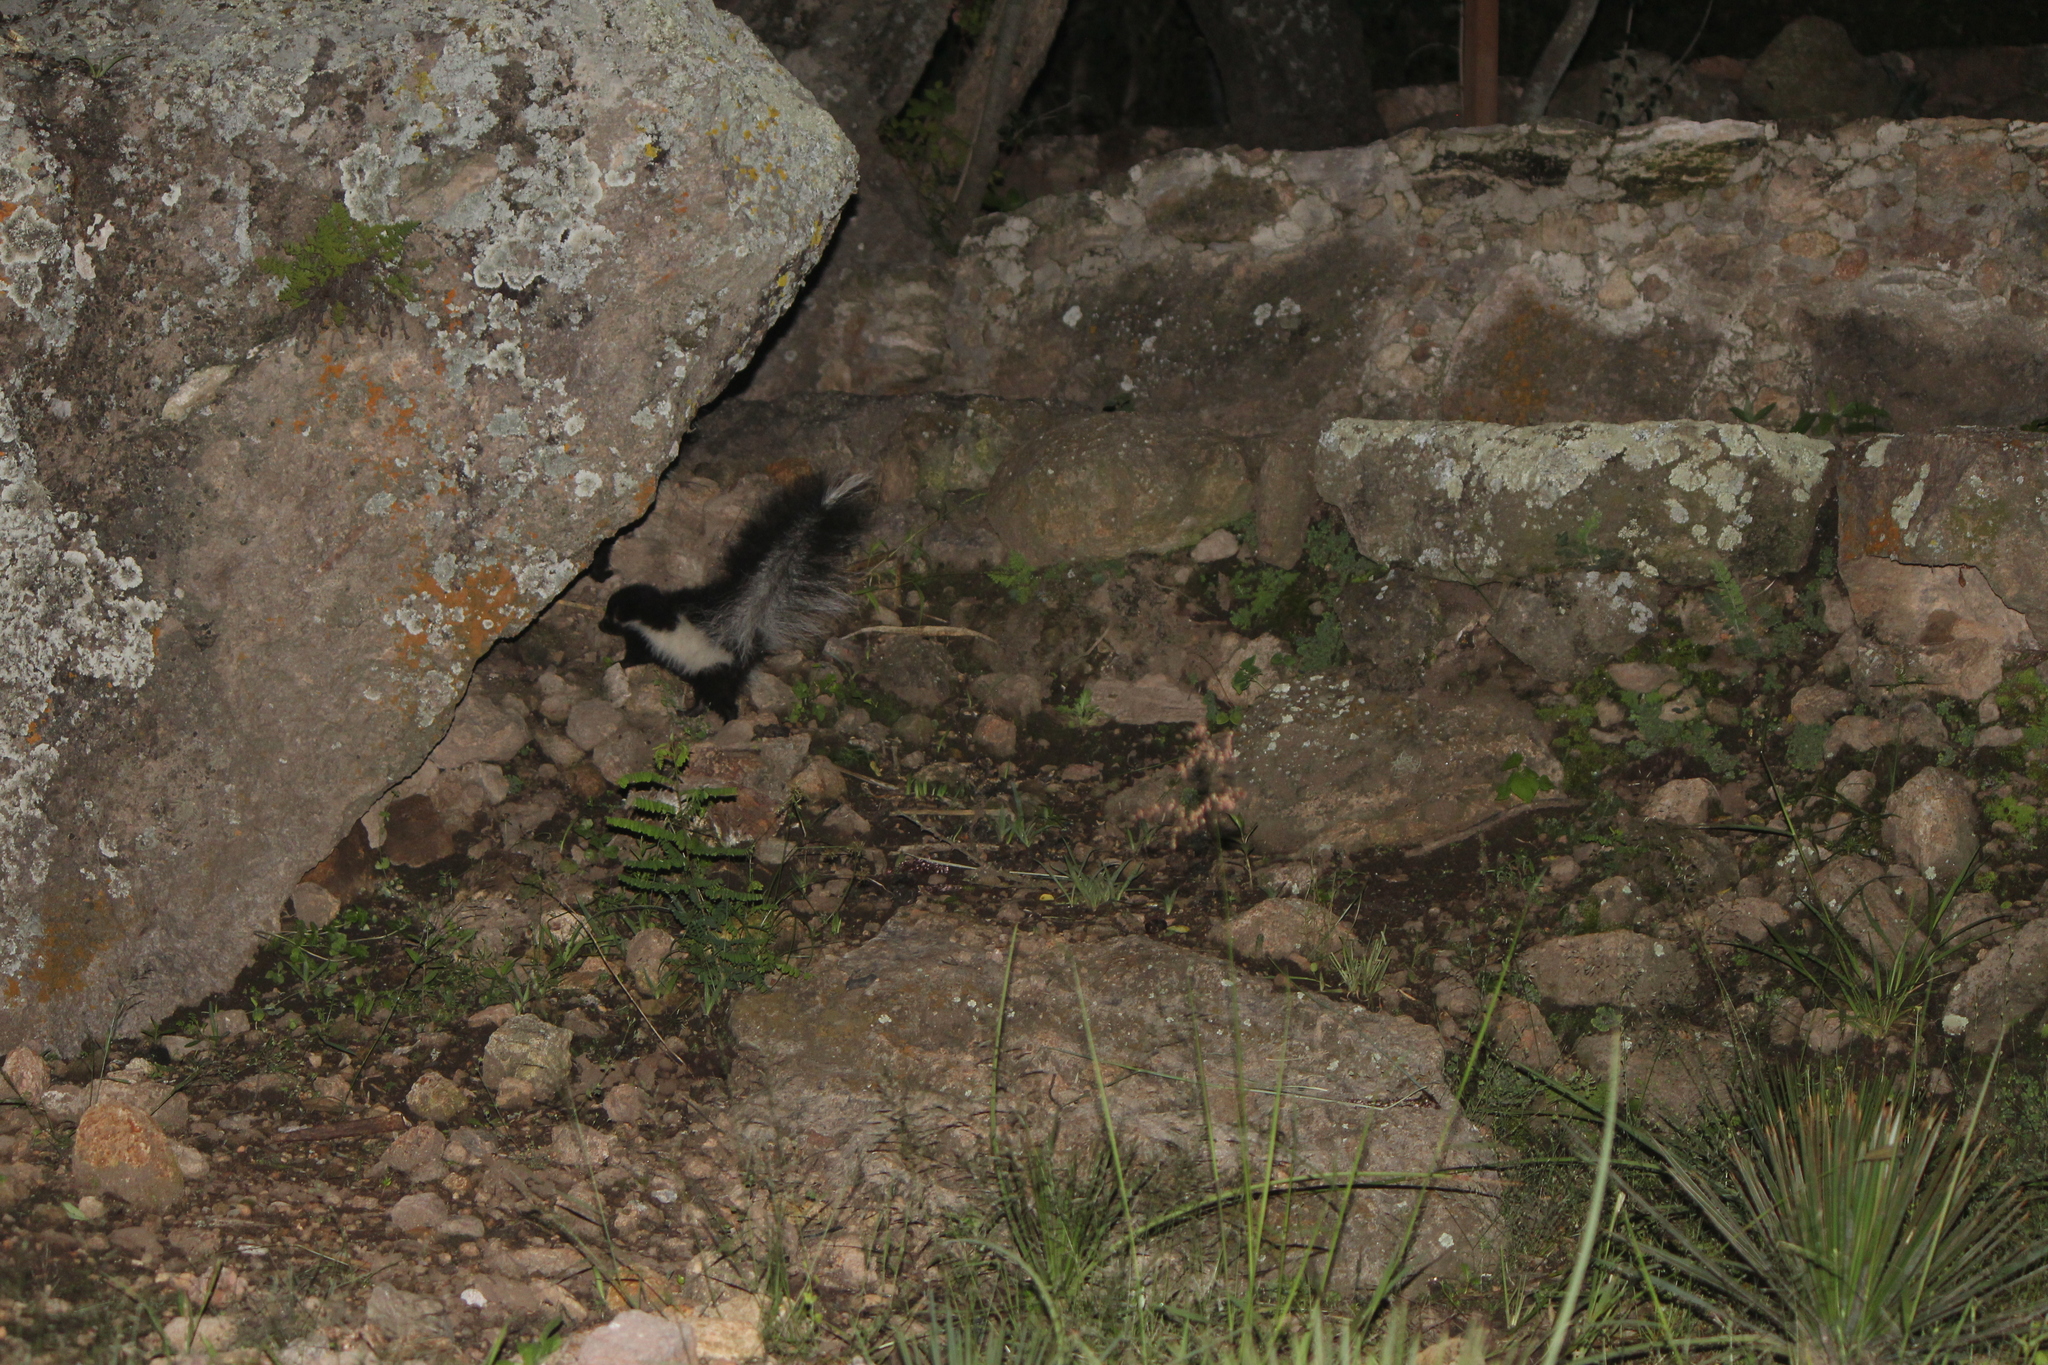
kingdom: Animalia
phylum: Chordata
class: Mammalia
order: Carnivora
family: Mephitidae
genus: Mephitis
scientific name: Mephitis macroura
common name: Hooded skunk
